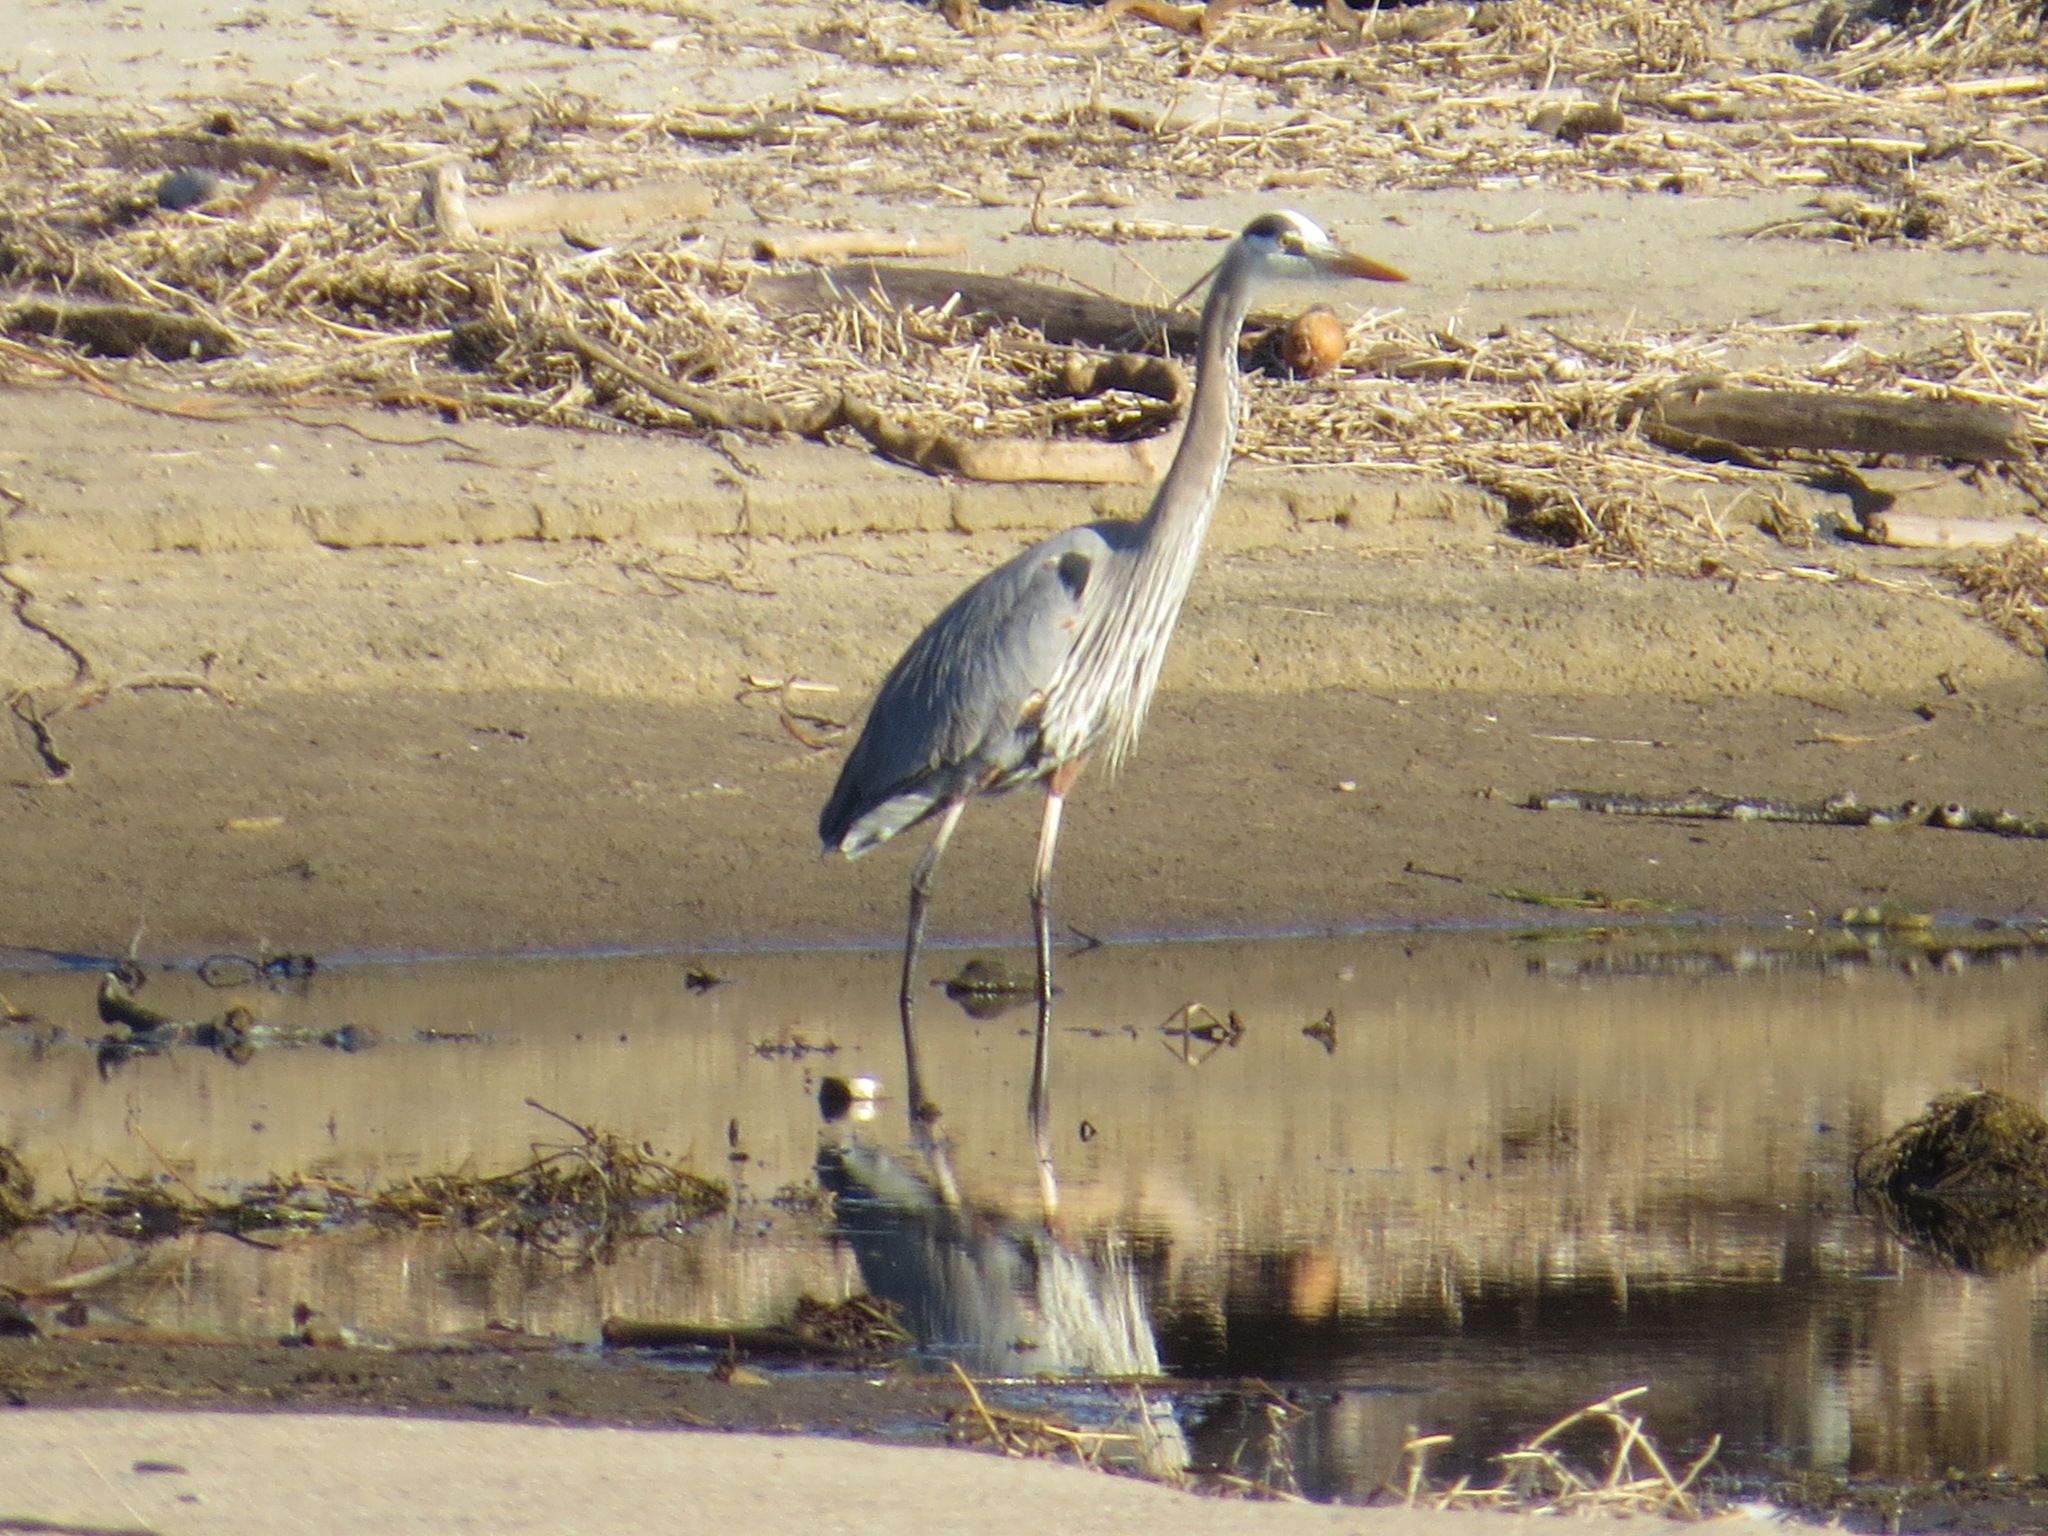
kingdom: Animalia
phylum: Chordata
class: Aves
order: Pelecaniformes
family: Ardeidae
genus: Ardea
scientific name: Ardea herodias
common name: Great blue heron
